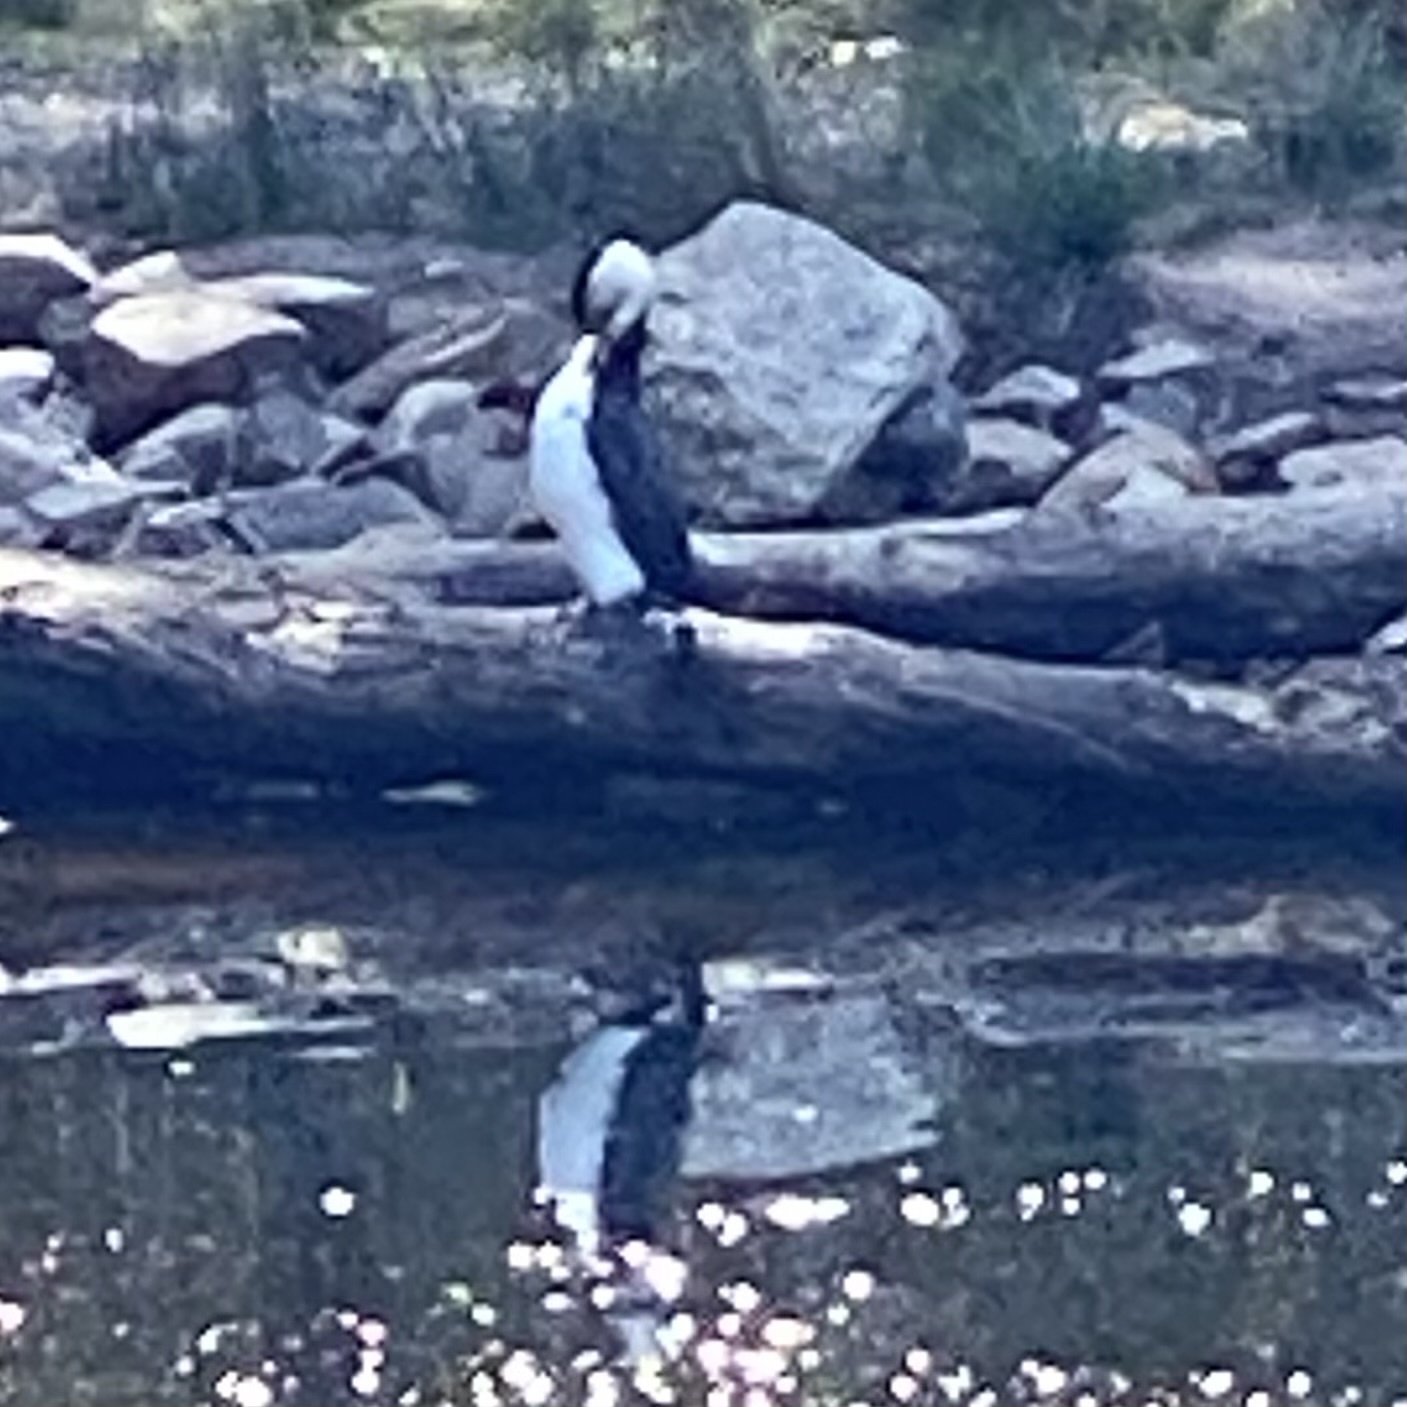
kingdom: Animalia
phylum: Chordata
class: Aves
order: Suliformes
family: Phalacrocoracidae
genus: Microcarbo
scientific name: Microcarbo melanoleucos
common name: Little pied cormorant
